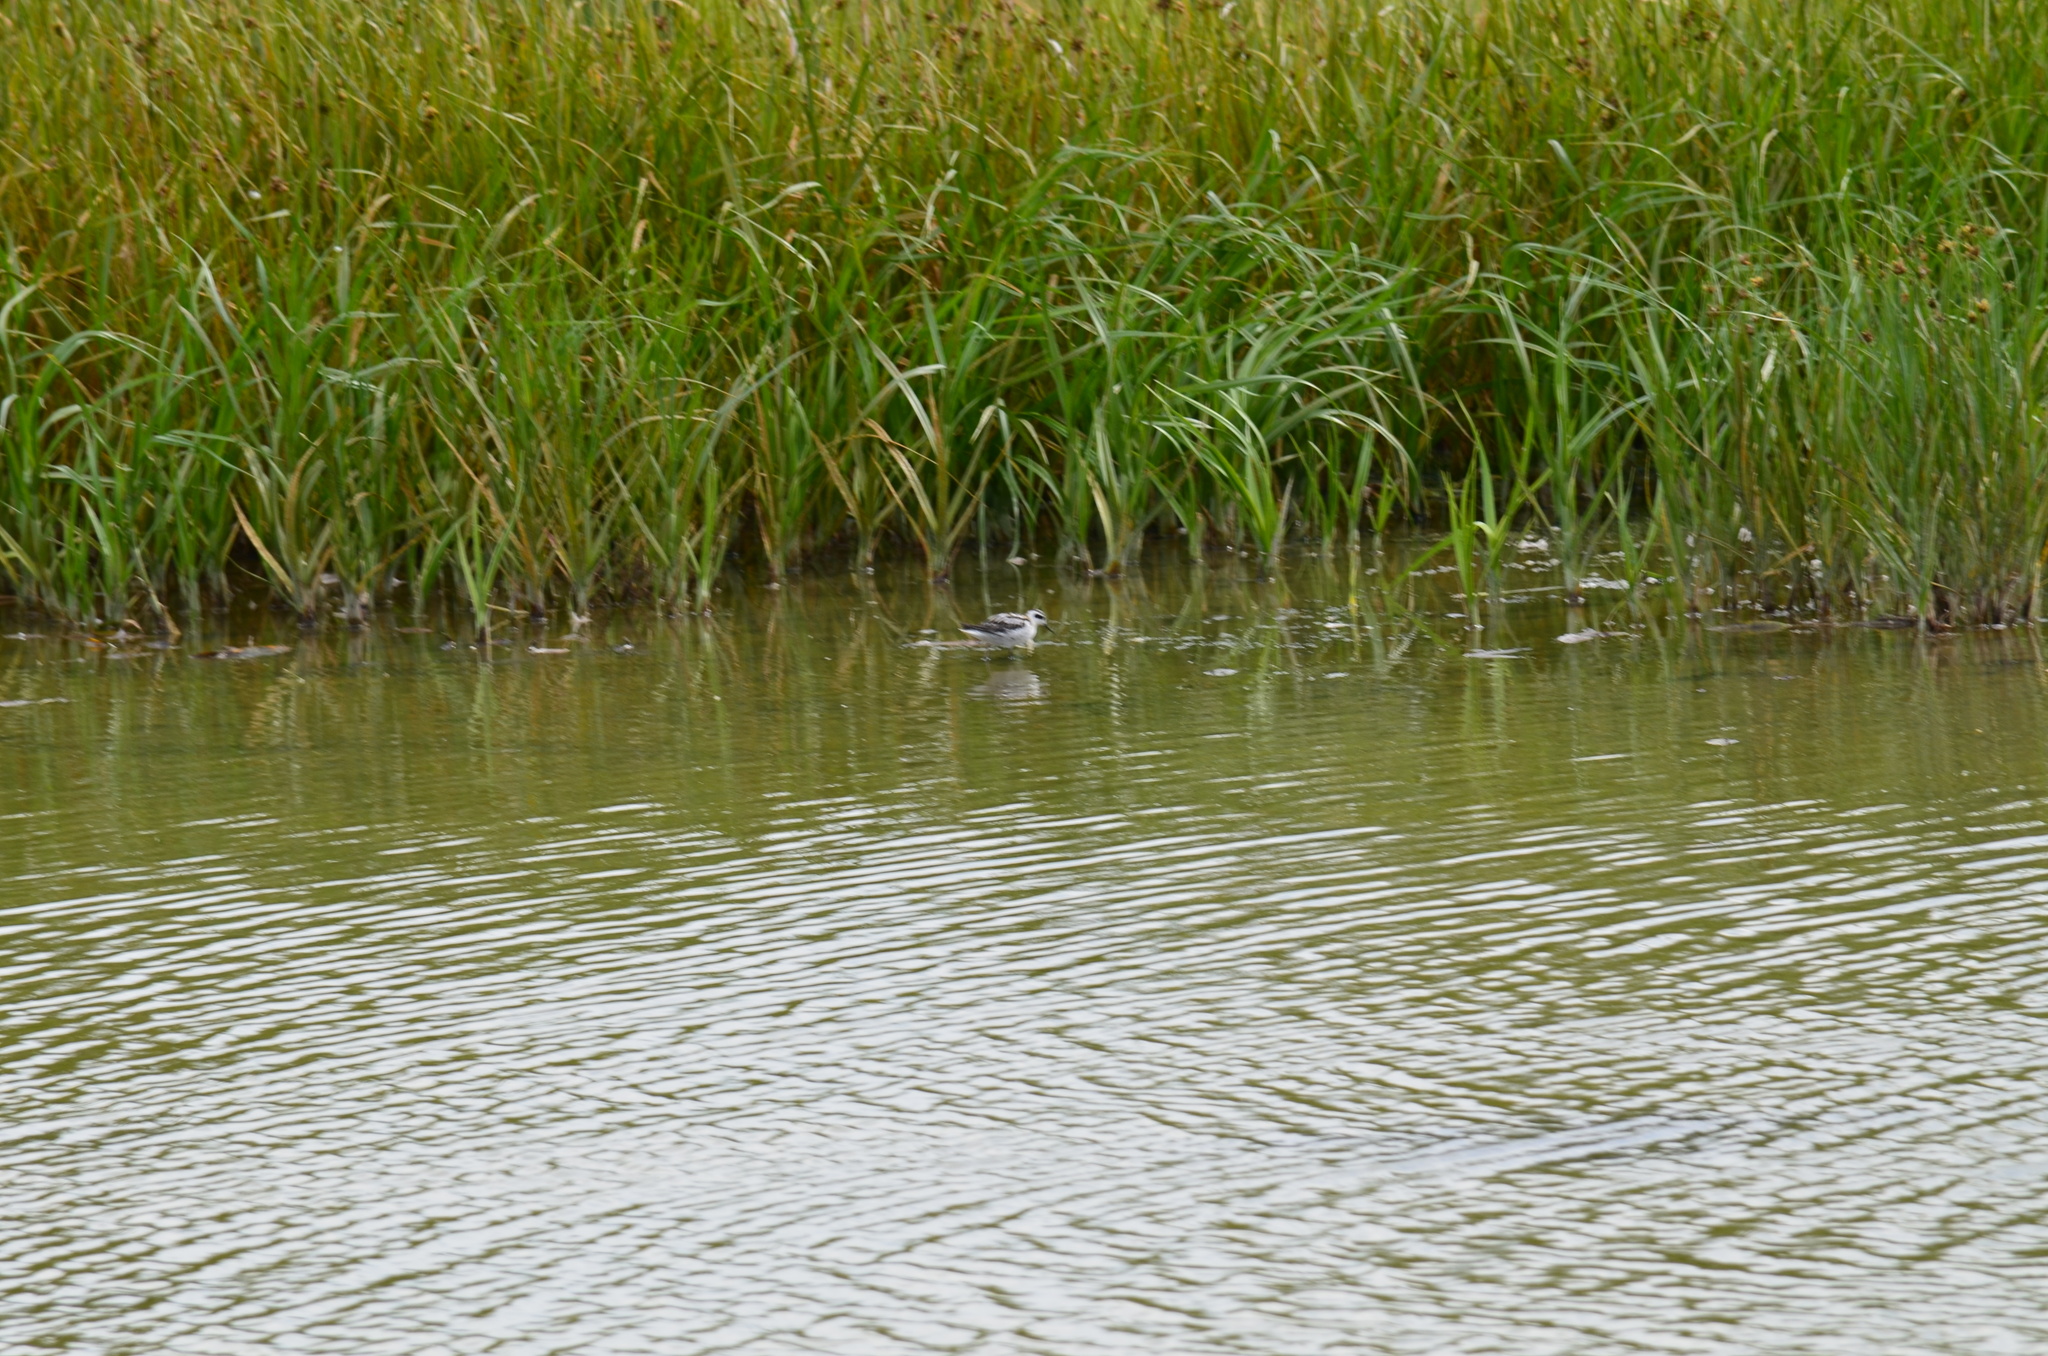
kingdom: Animalia
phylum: Chordata
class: Aves
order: Charadriiformes
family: Scolopacidae
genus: Phalaropus
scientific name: Phalaropus lobatus
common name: Red-necked phalarope
